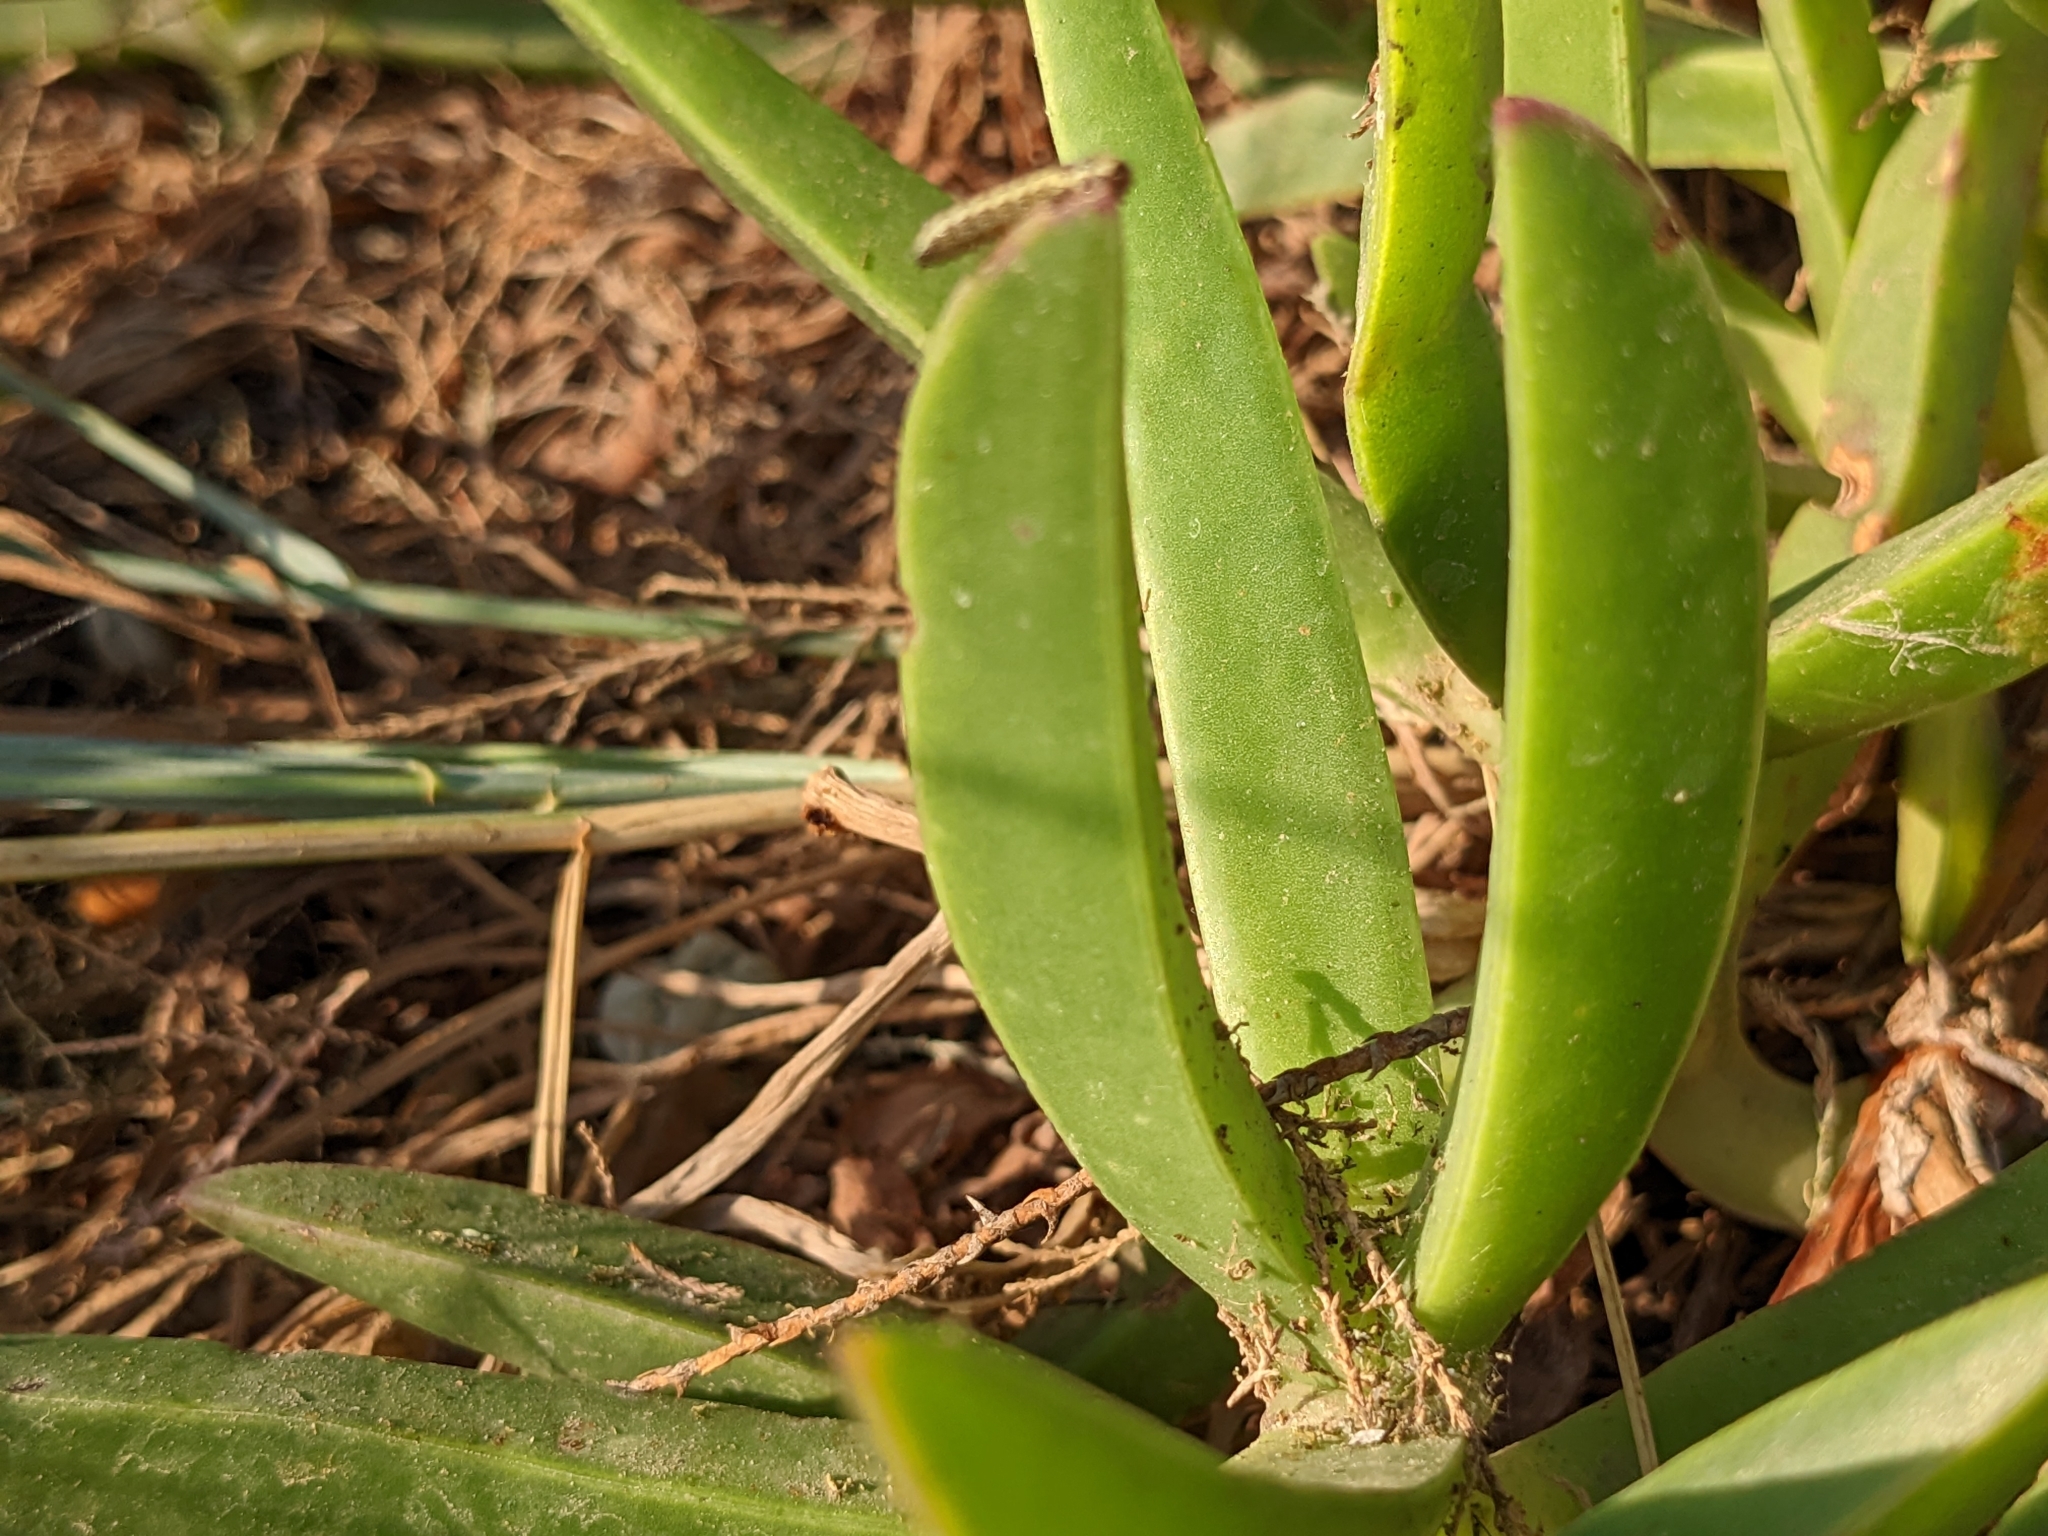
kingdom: Plantae
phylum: Tracheophyta
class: Magnoliopsida
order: Caryophyllales
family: Aizoaceae
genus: Carpobrotus
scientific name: Carpobrotus edulis
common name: Hottentot-fig
